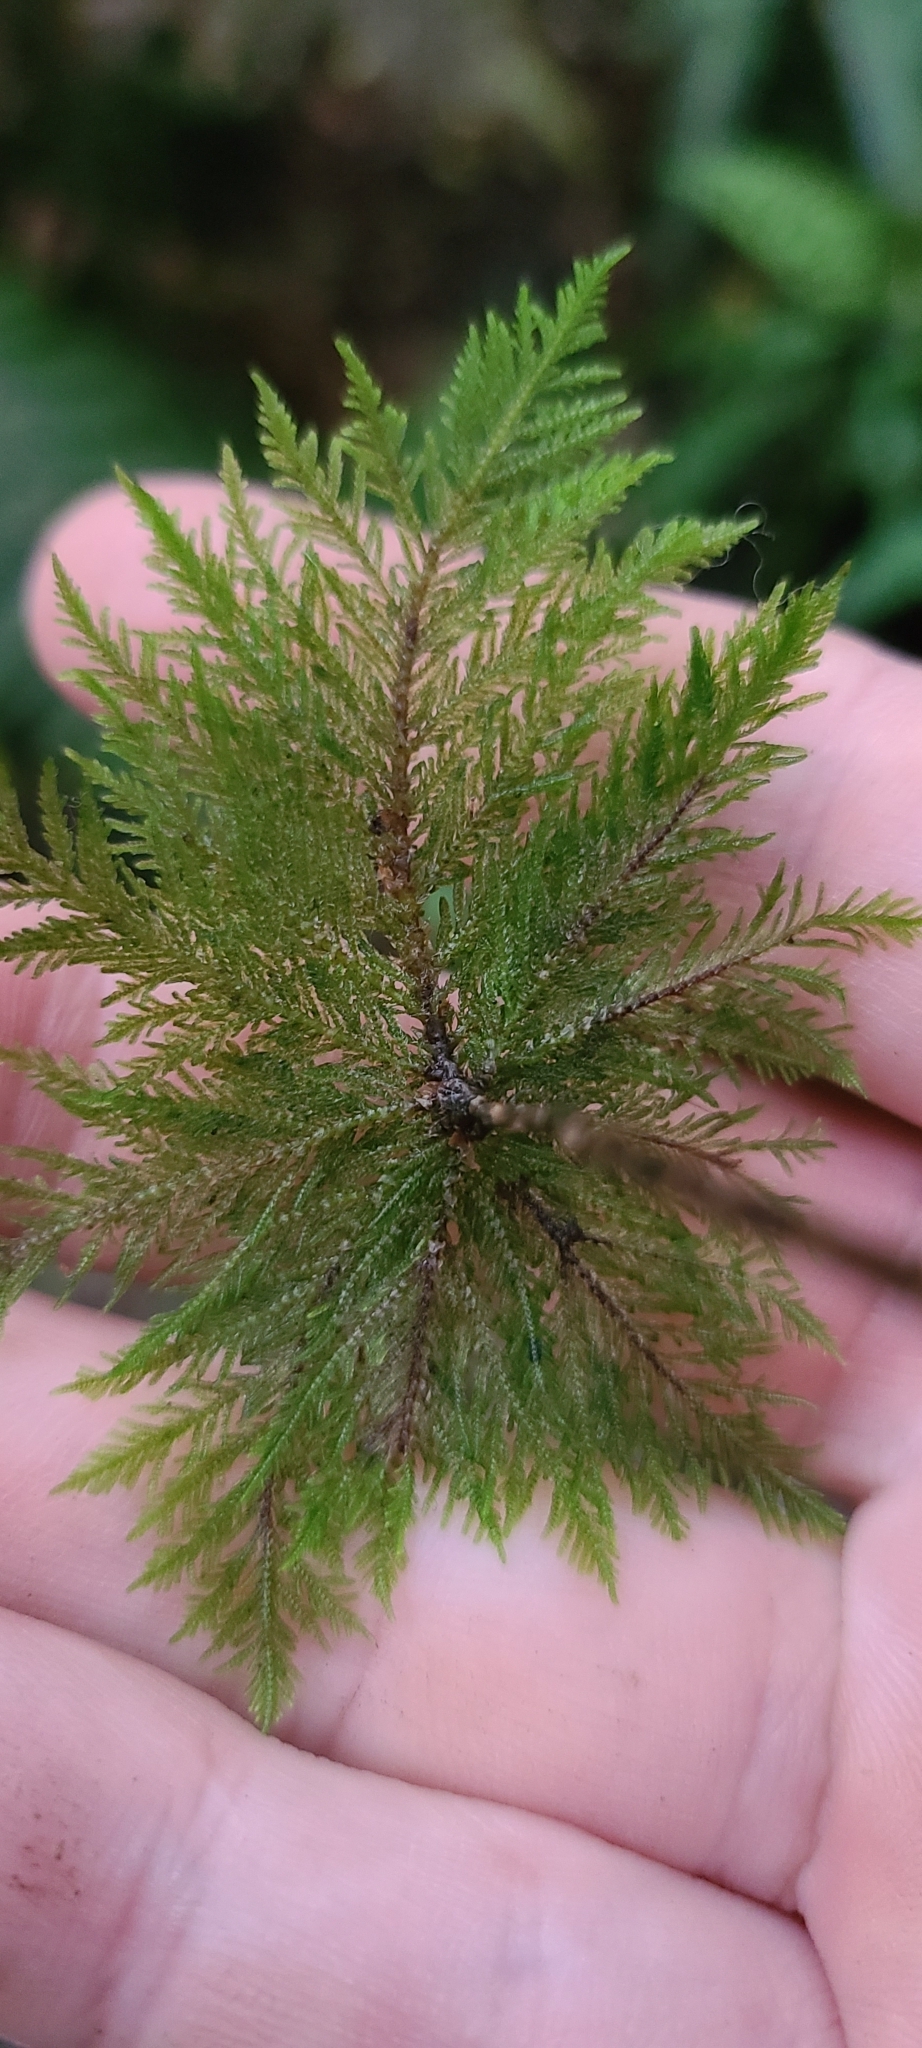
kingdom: Plantae
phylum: Bryophyta
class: Bryopsida
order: Hypopterygiales
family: Hypopterygiaceae
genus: Dendrohypopterygium
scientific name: Dendrohypopterygium filiculiforme
